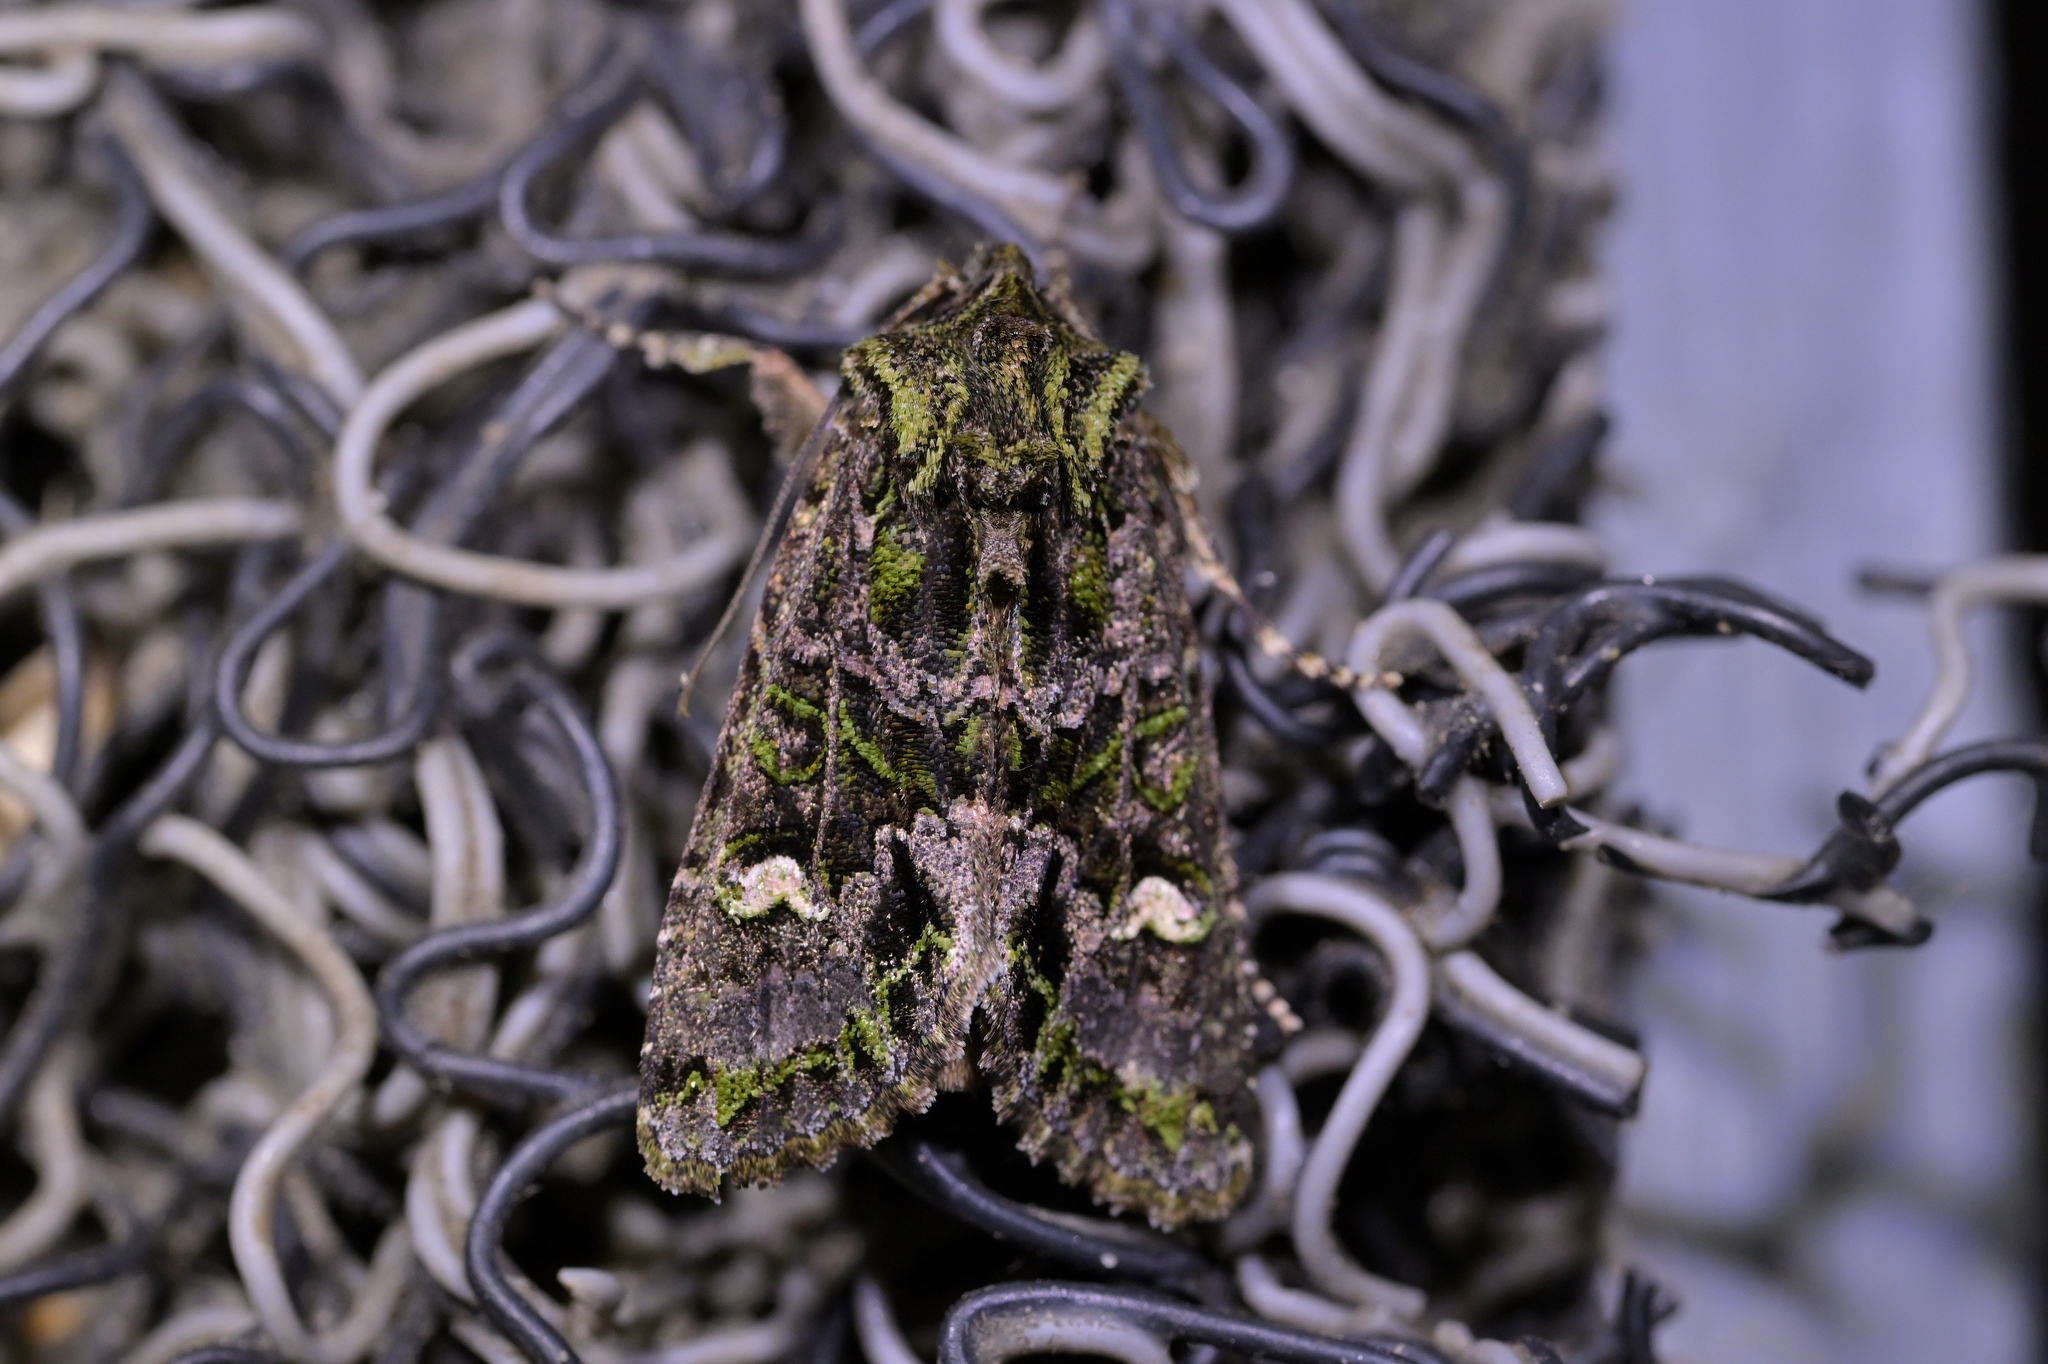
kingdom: Animalia
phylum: Arthropoda
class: Insecta
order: Lepidoptera
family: Noctuidae
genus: Ichneutica
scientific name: Ichneutica
